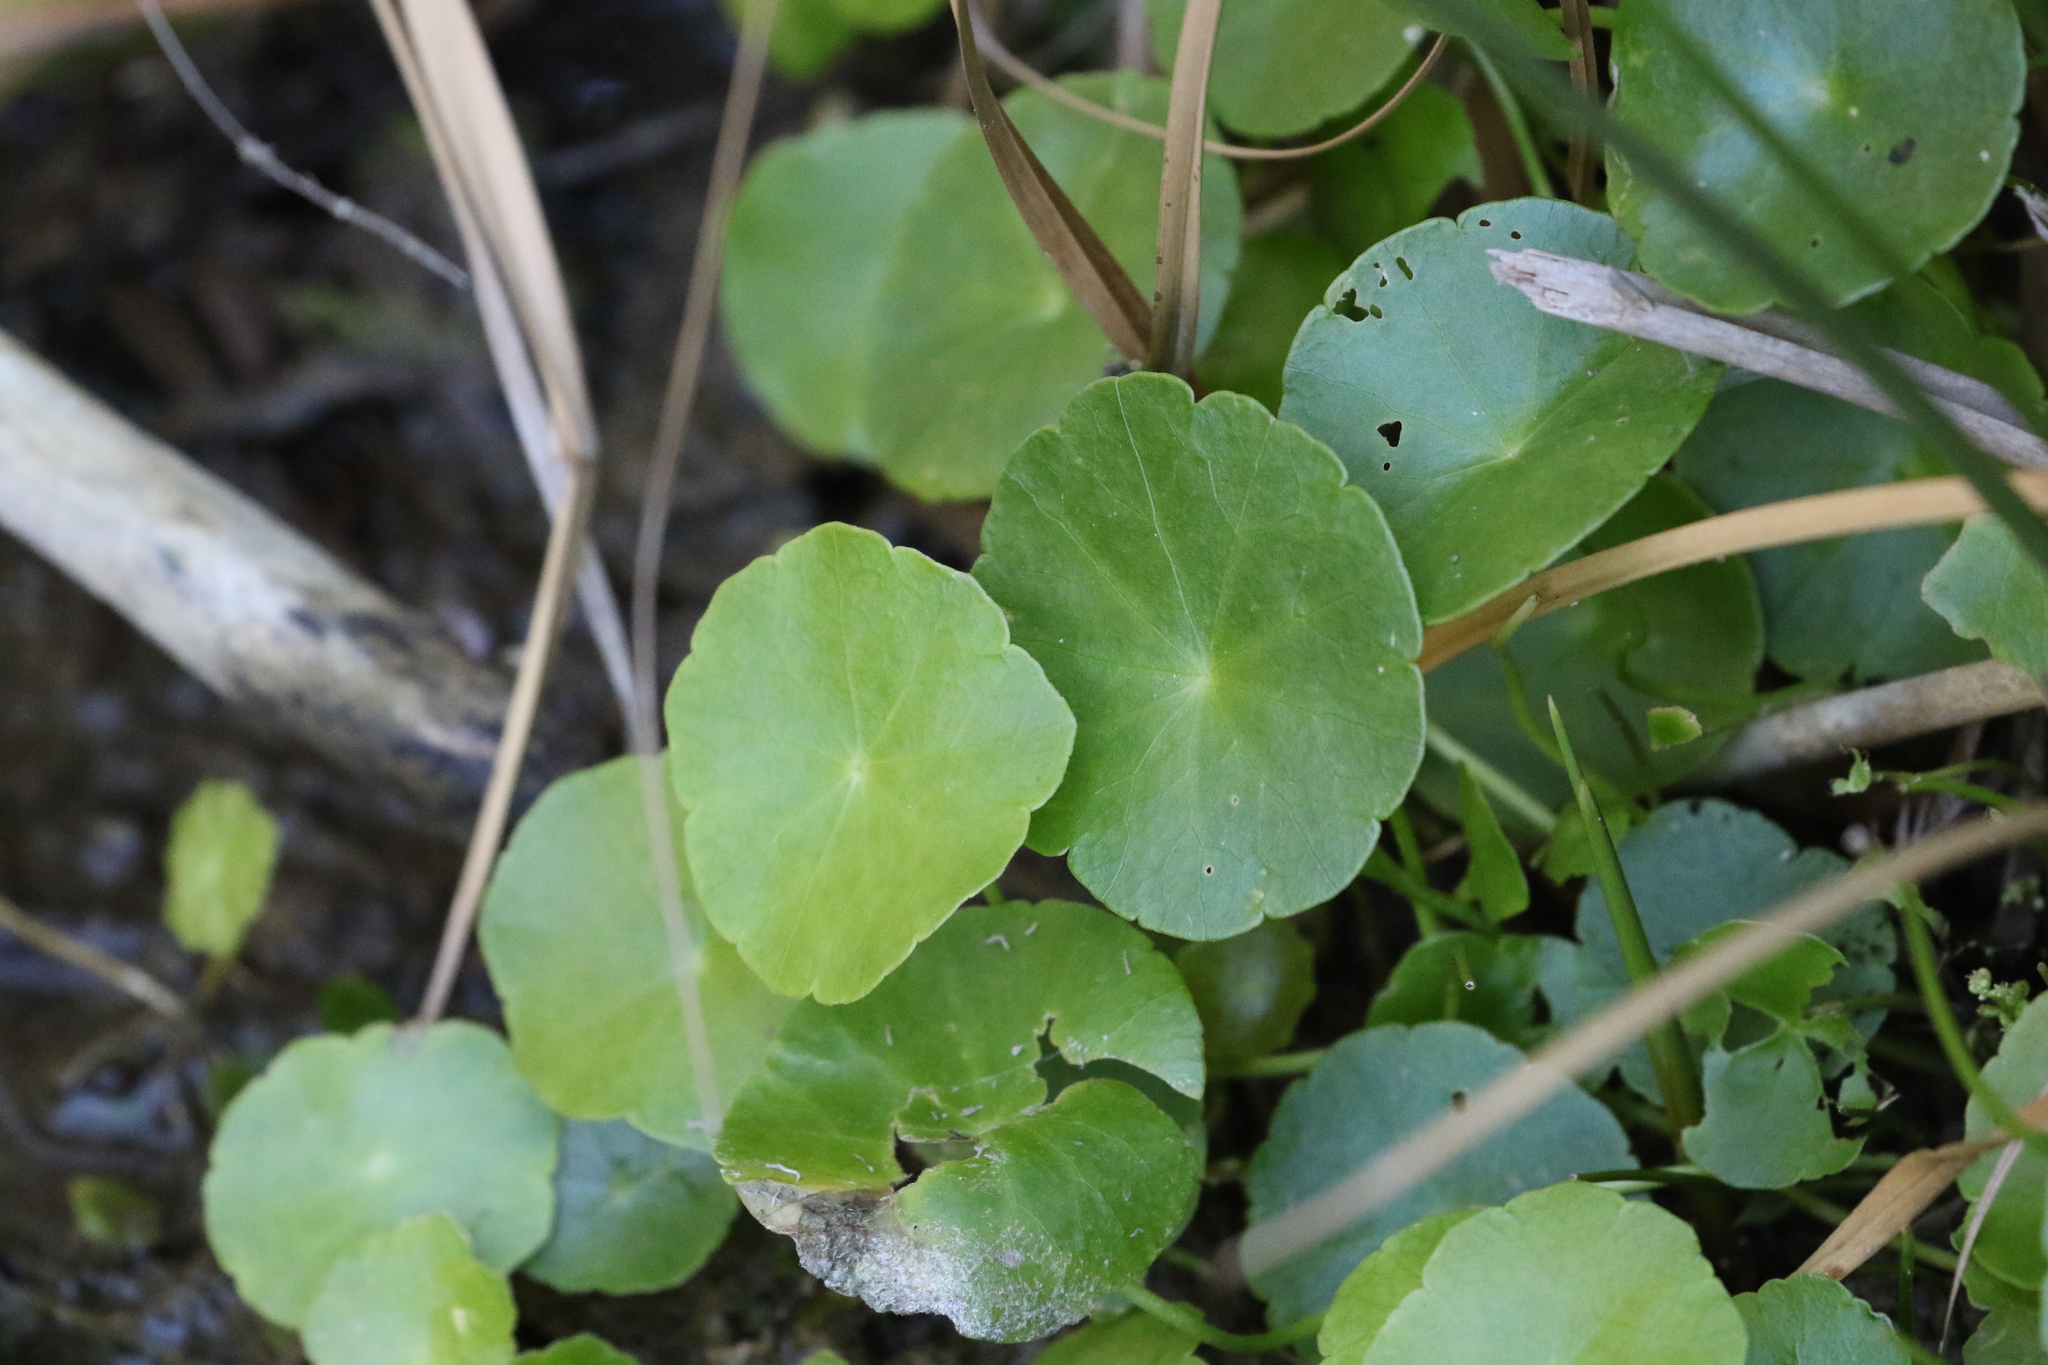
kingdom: Plantae
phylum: Tracheophyta
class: Magnoliopsida
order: Apiales
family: Araliaceae
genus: Hydrocotyle
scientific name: Hydrocotyle verticillata
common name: Whorled marshpennywort
